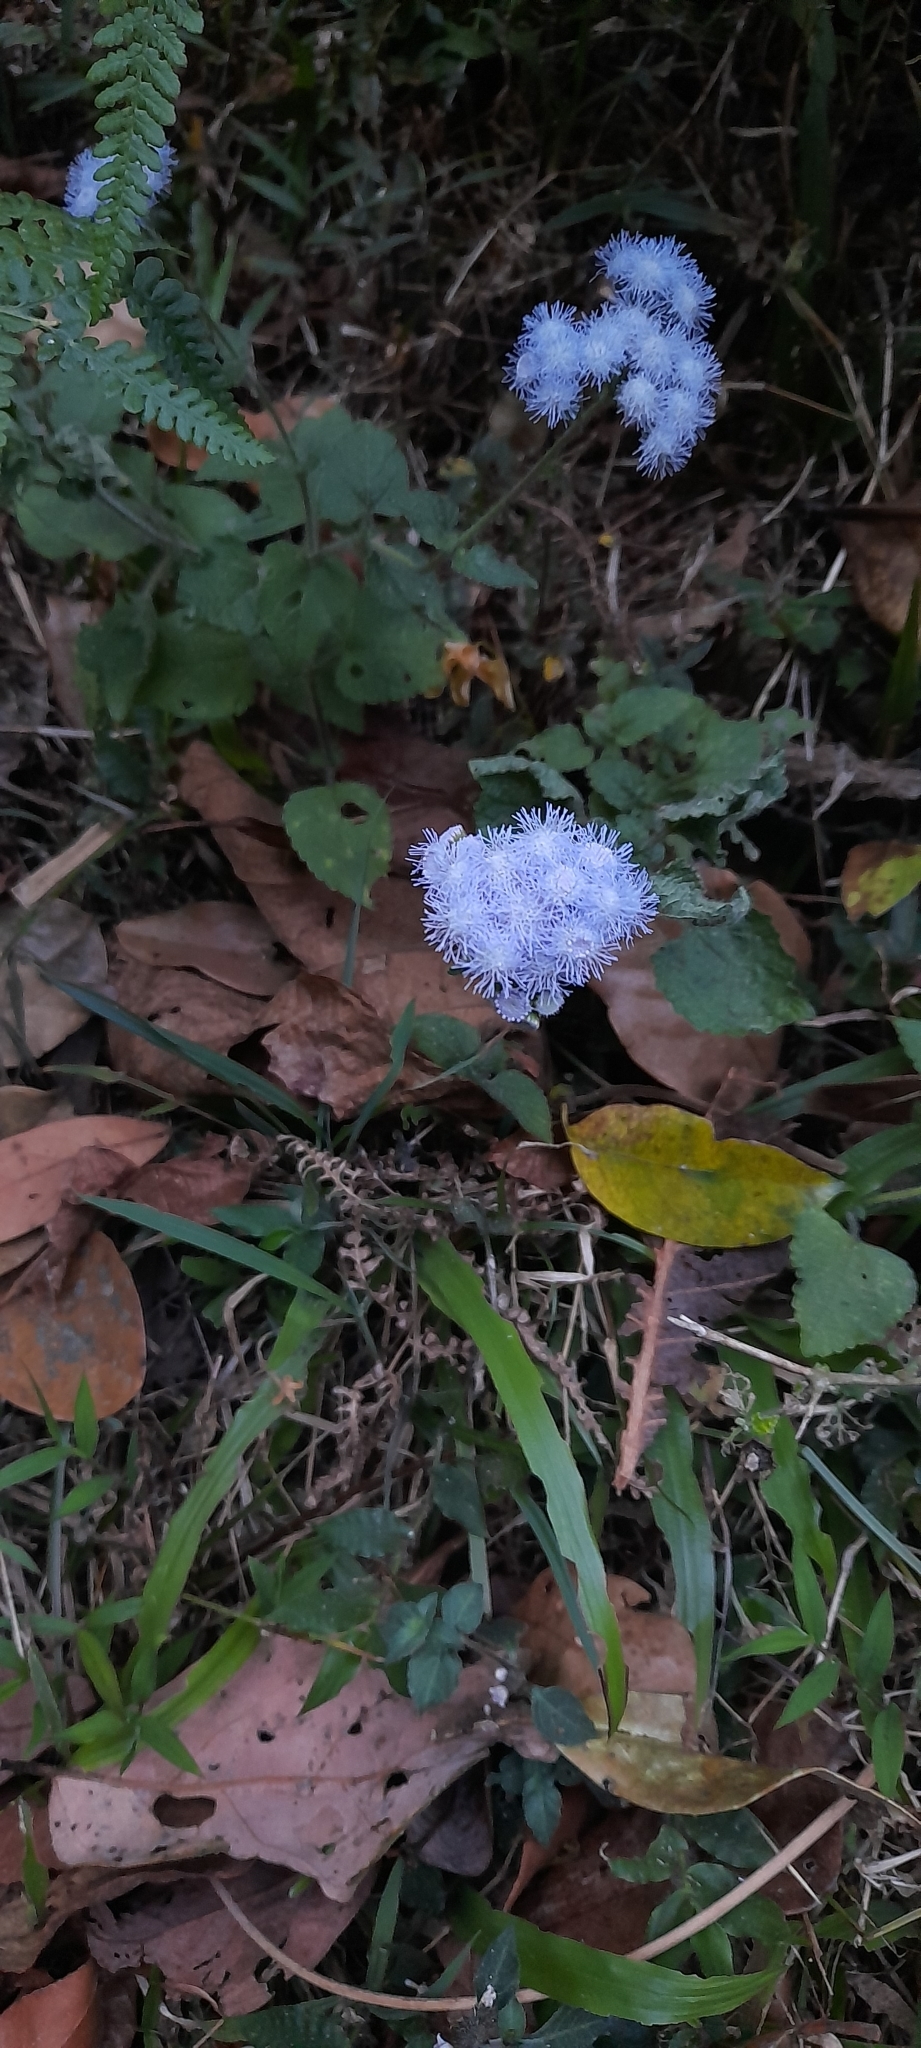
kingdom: Plantae
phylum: Tracheophyta
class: Magnoliopsida
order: Asterales
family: Asteraceae
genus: Ageratum
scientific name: Ageratum houstonianum
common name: Bluemink
